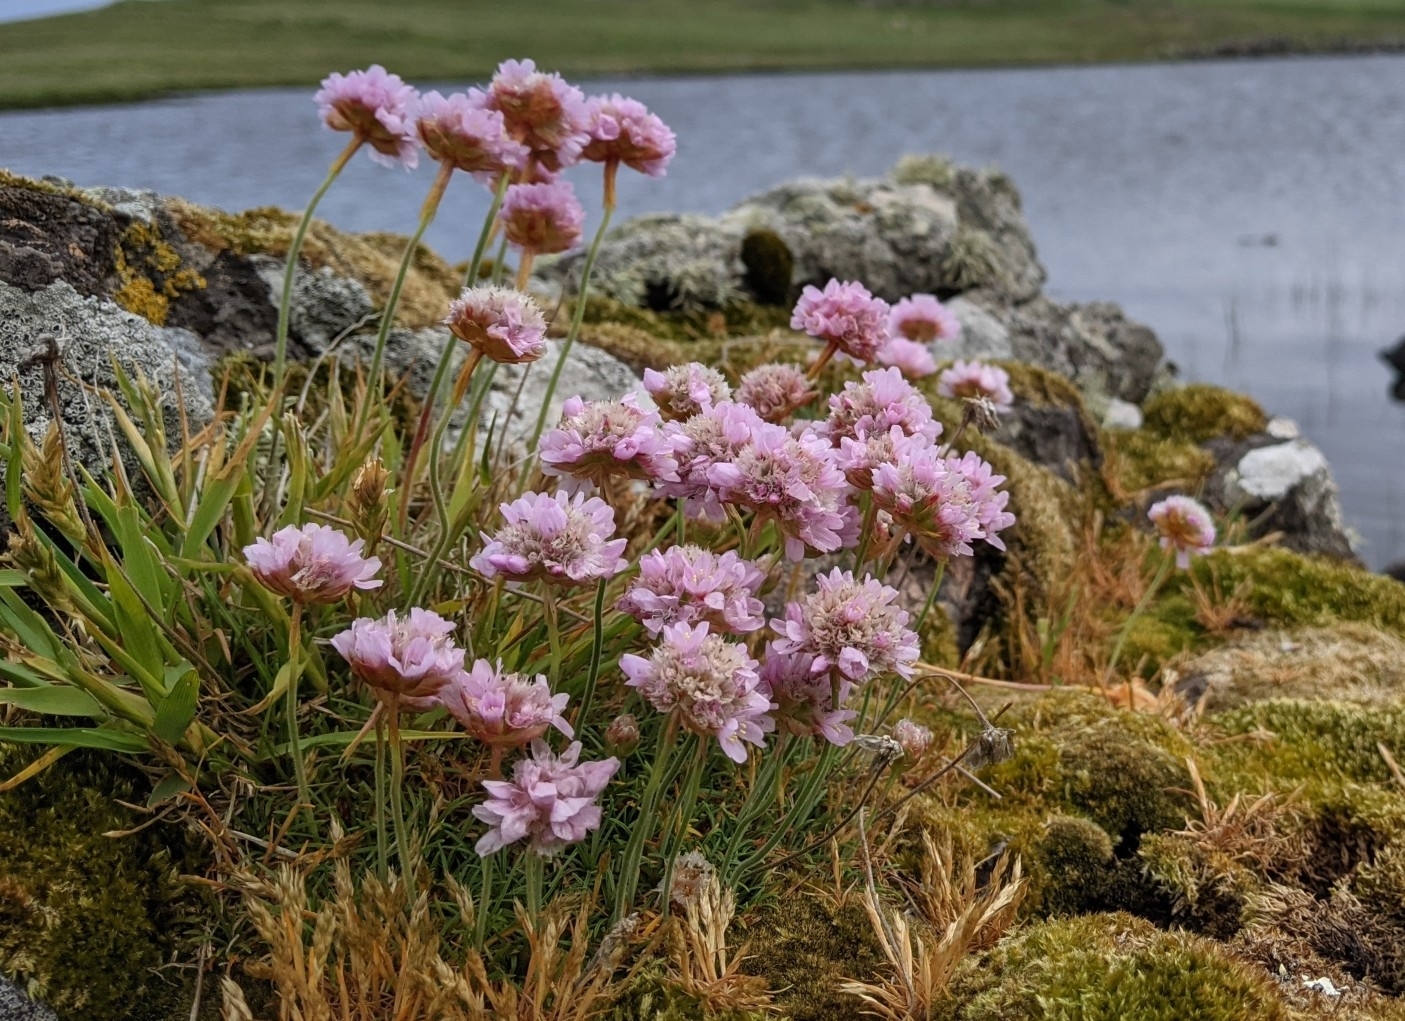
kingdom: Plantae
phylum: Tracheophyta
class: Magnoliopsida
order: Caryophyllales
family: Plumbaginaceae
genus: Armeria
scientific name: Armeria maritima
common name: Thrift
